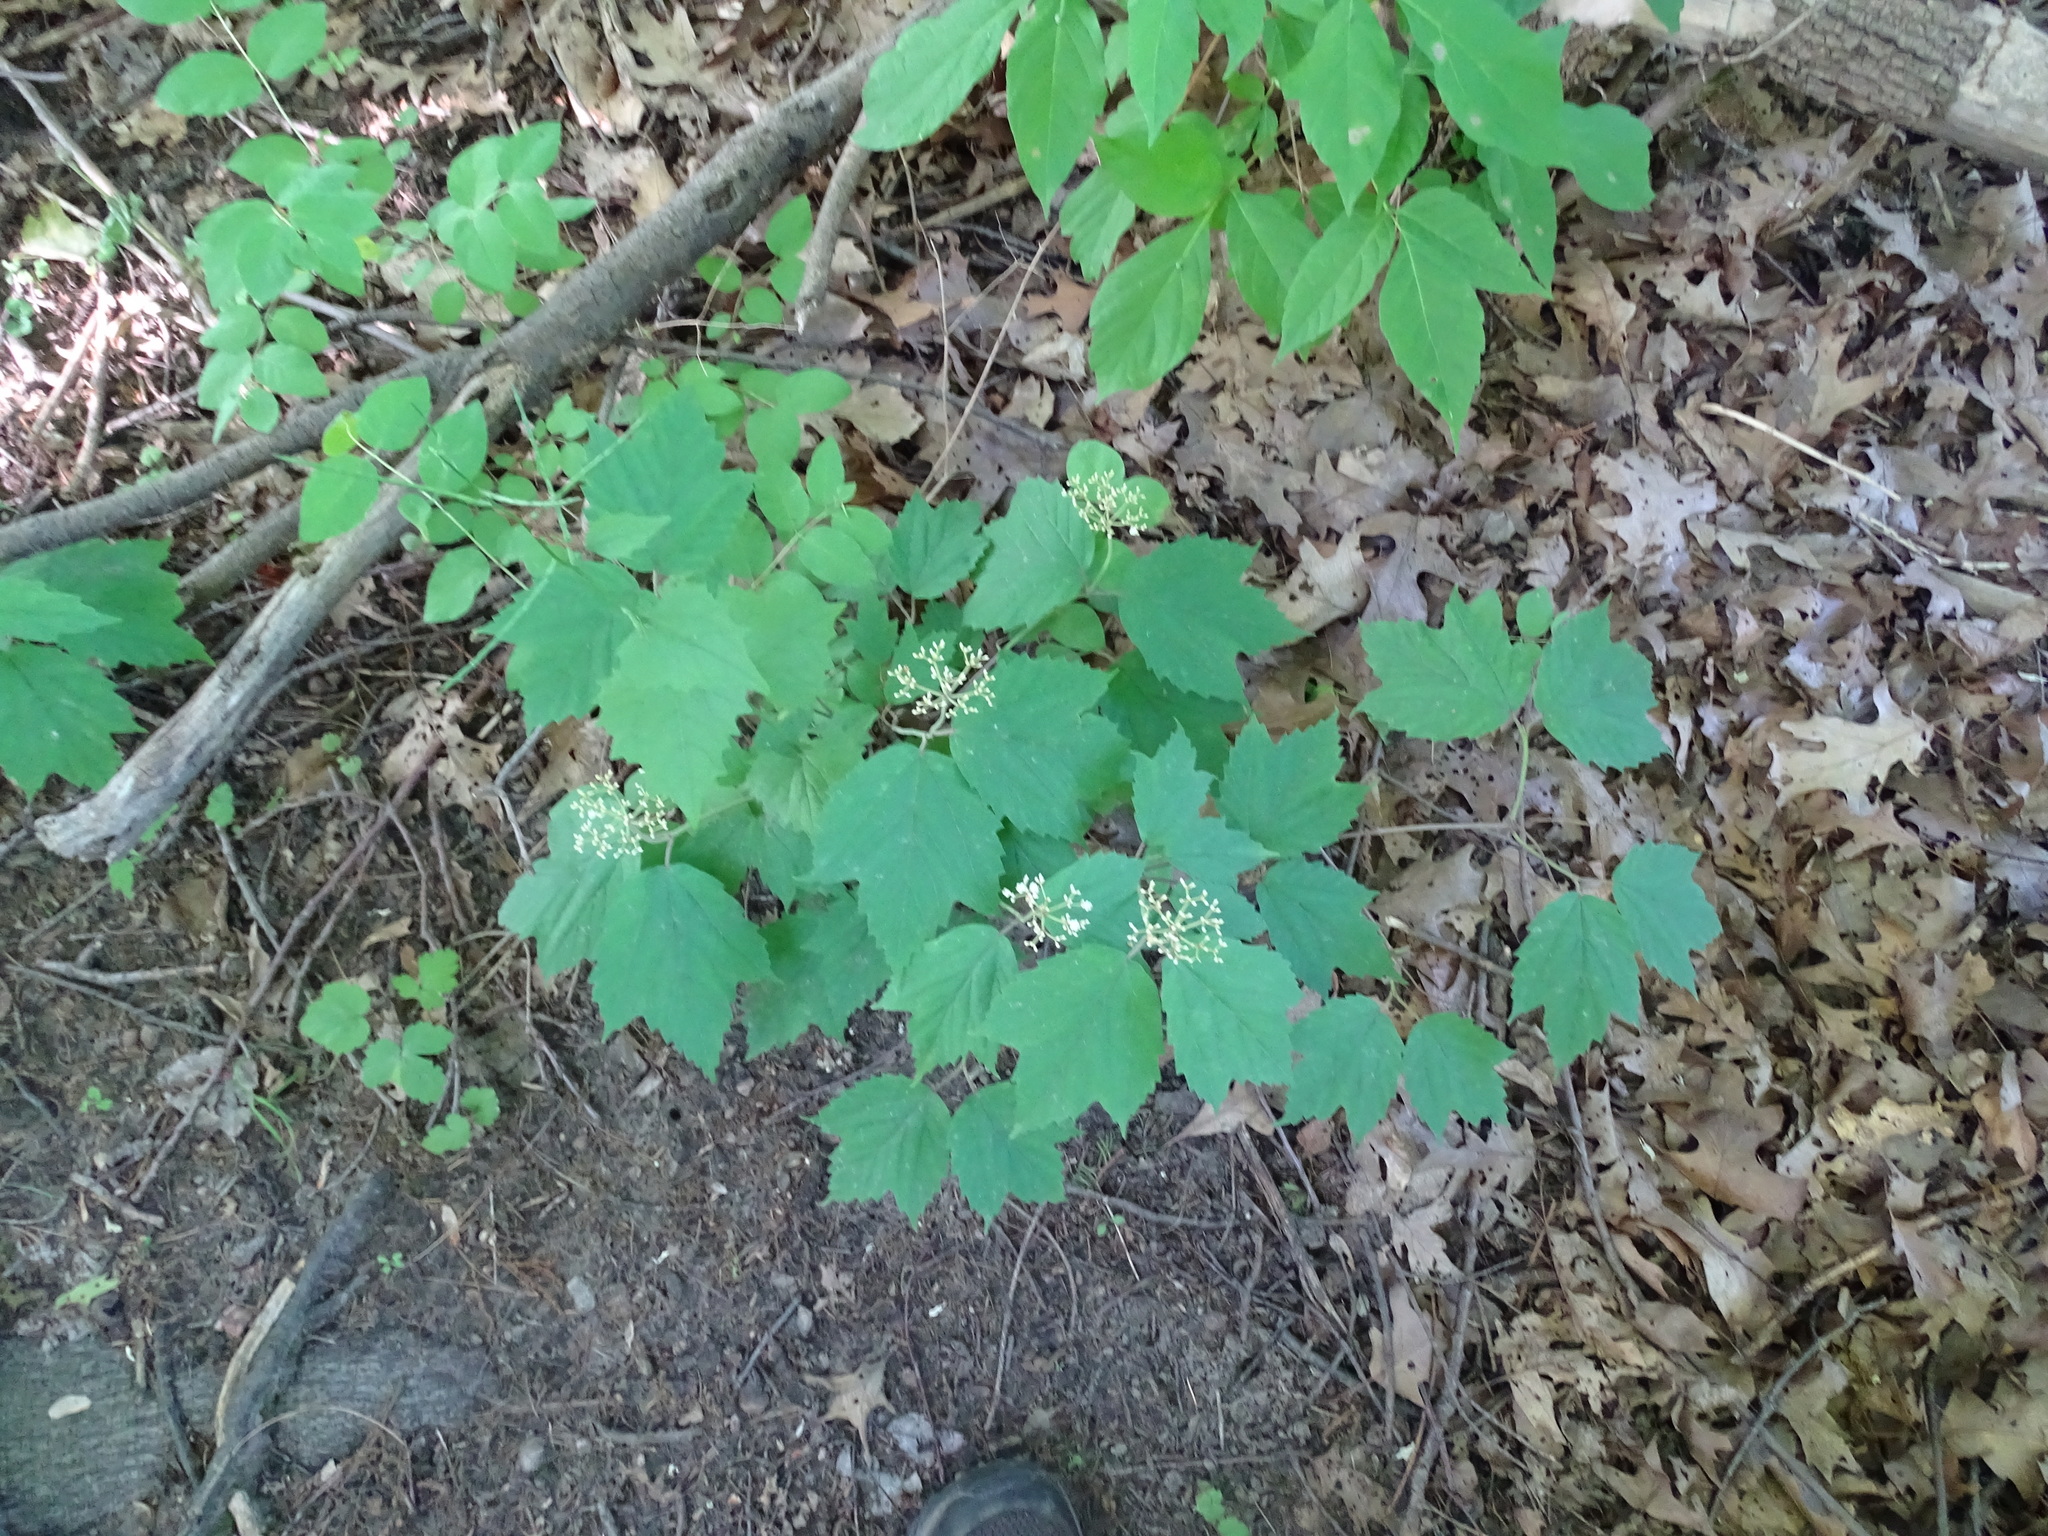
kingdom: Plantae
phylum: Tracheophyta
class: Magnoliopsida
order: Dipsacales
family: Viburnaceae
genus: Viburnum
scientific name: Viburnum acerifolium
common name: Dockmackie
